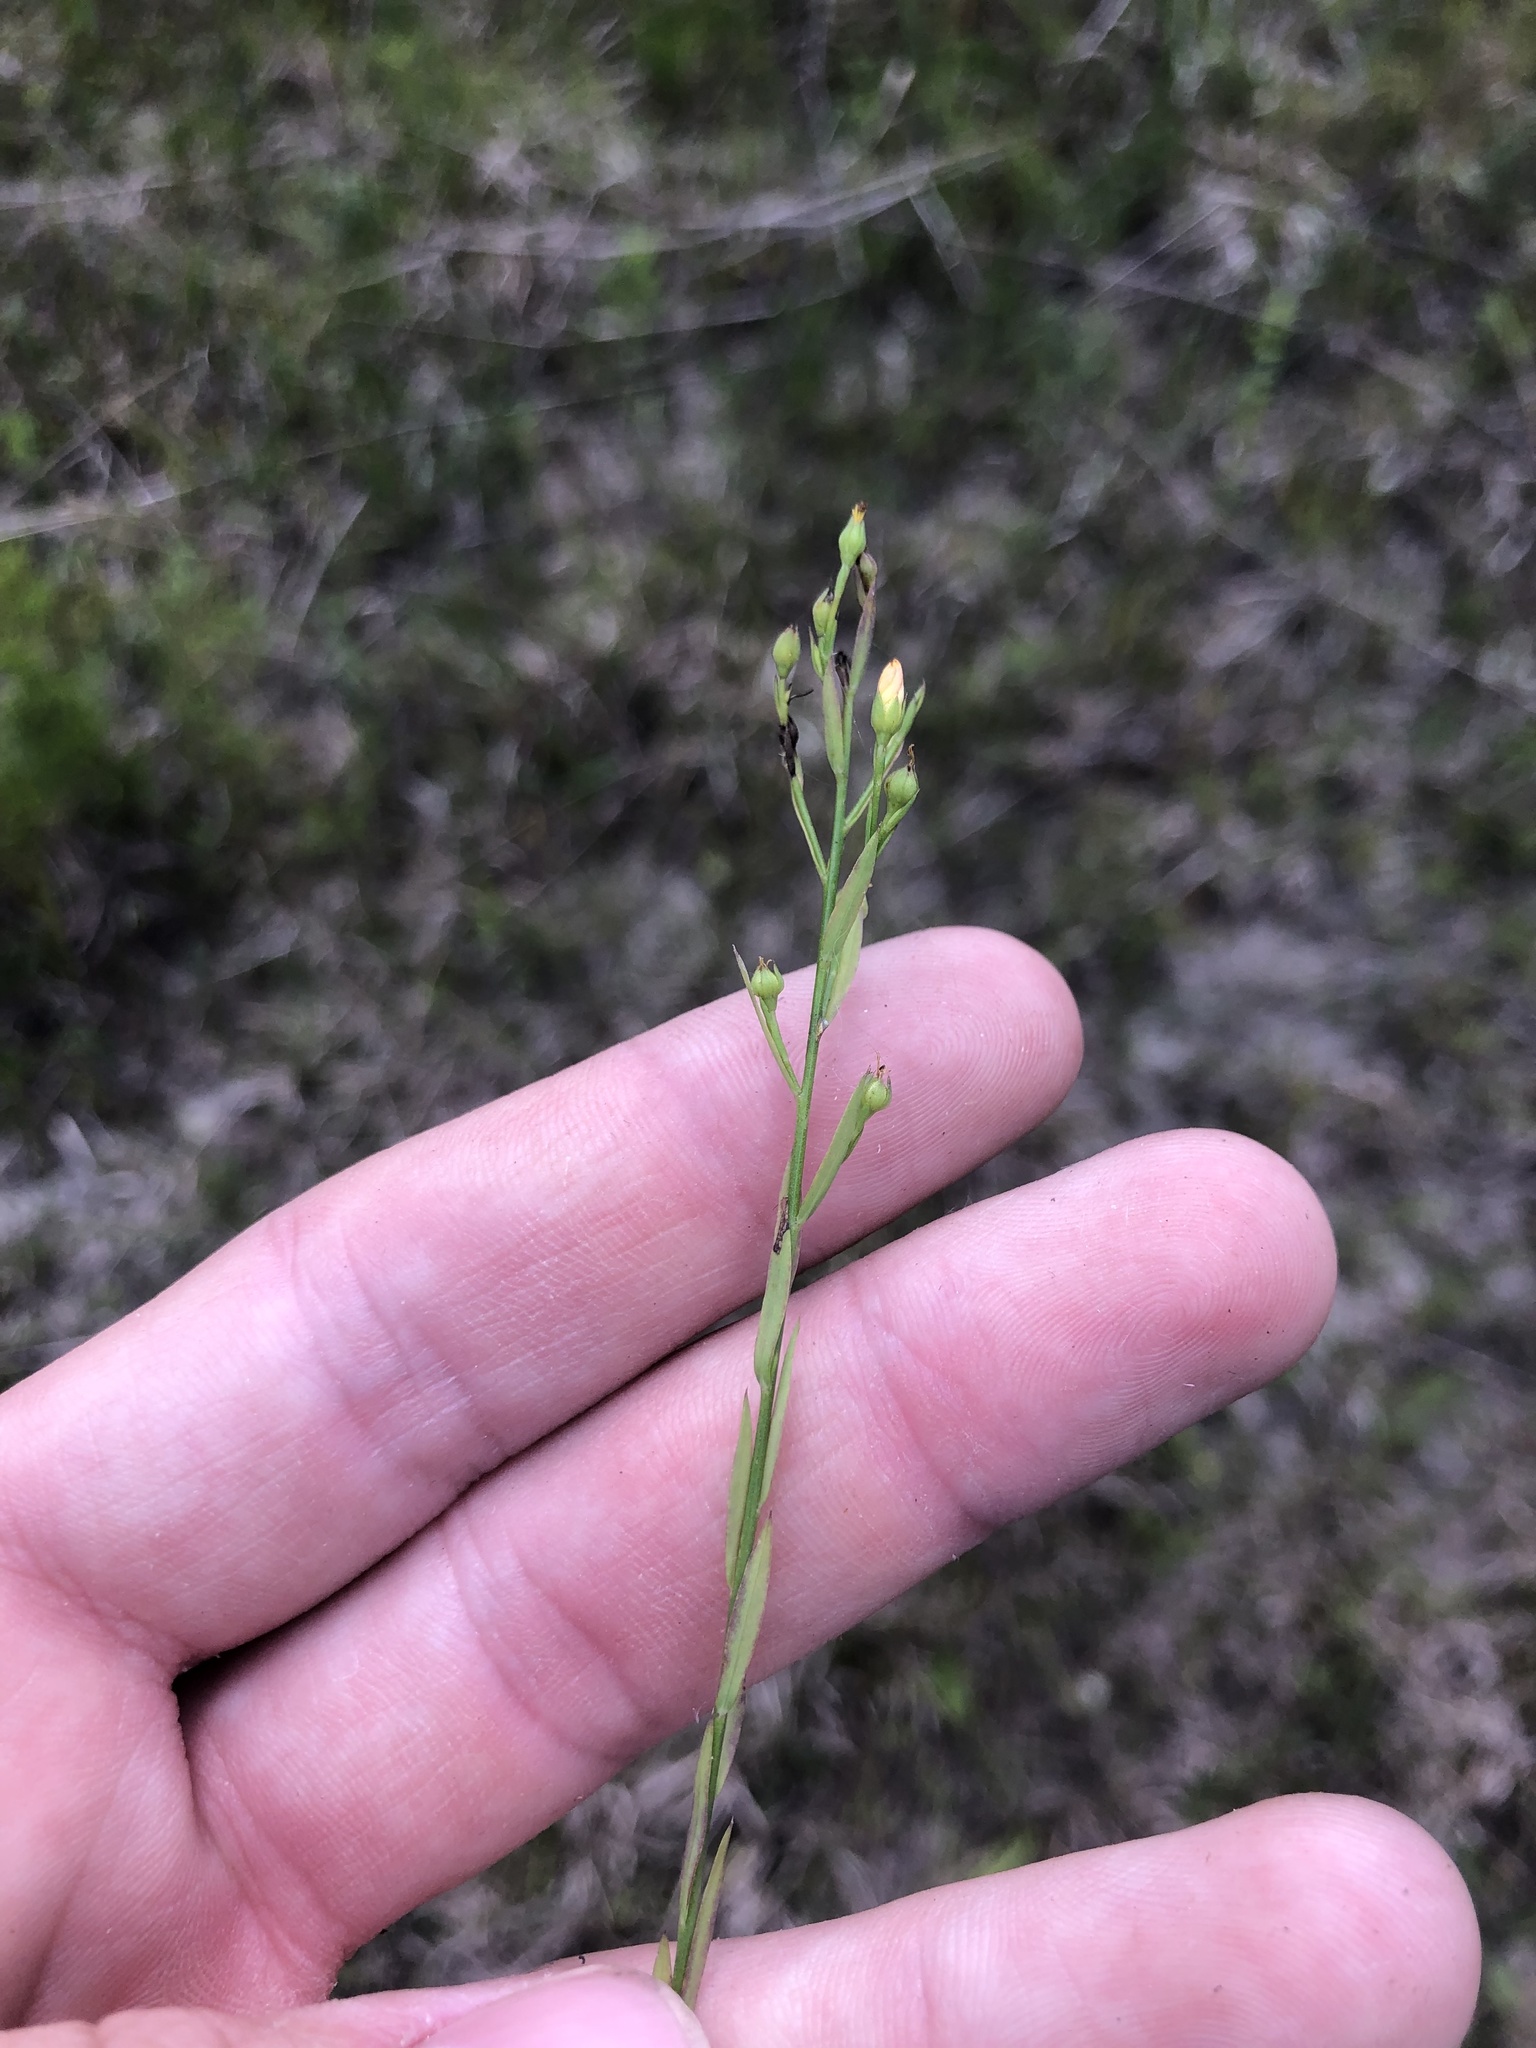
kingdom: Plantae
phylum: Tracheophyta
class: Magnoliopsida
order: Malpighiales
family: Linaceae
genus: Linum
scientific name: Linum sulcatum
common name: Grooved flax
